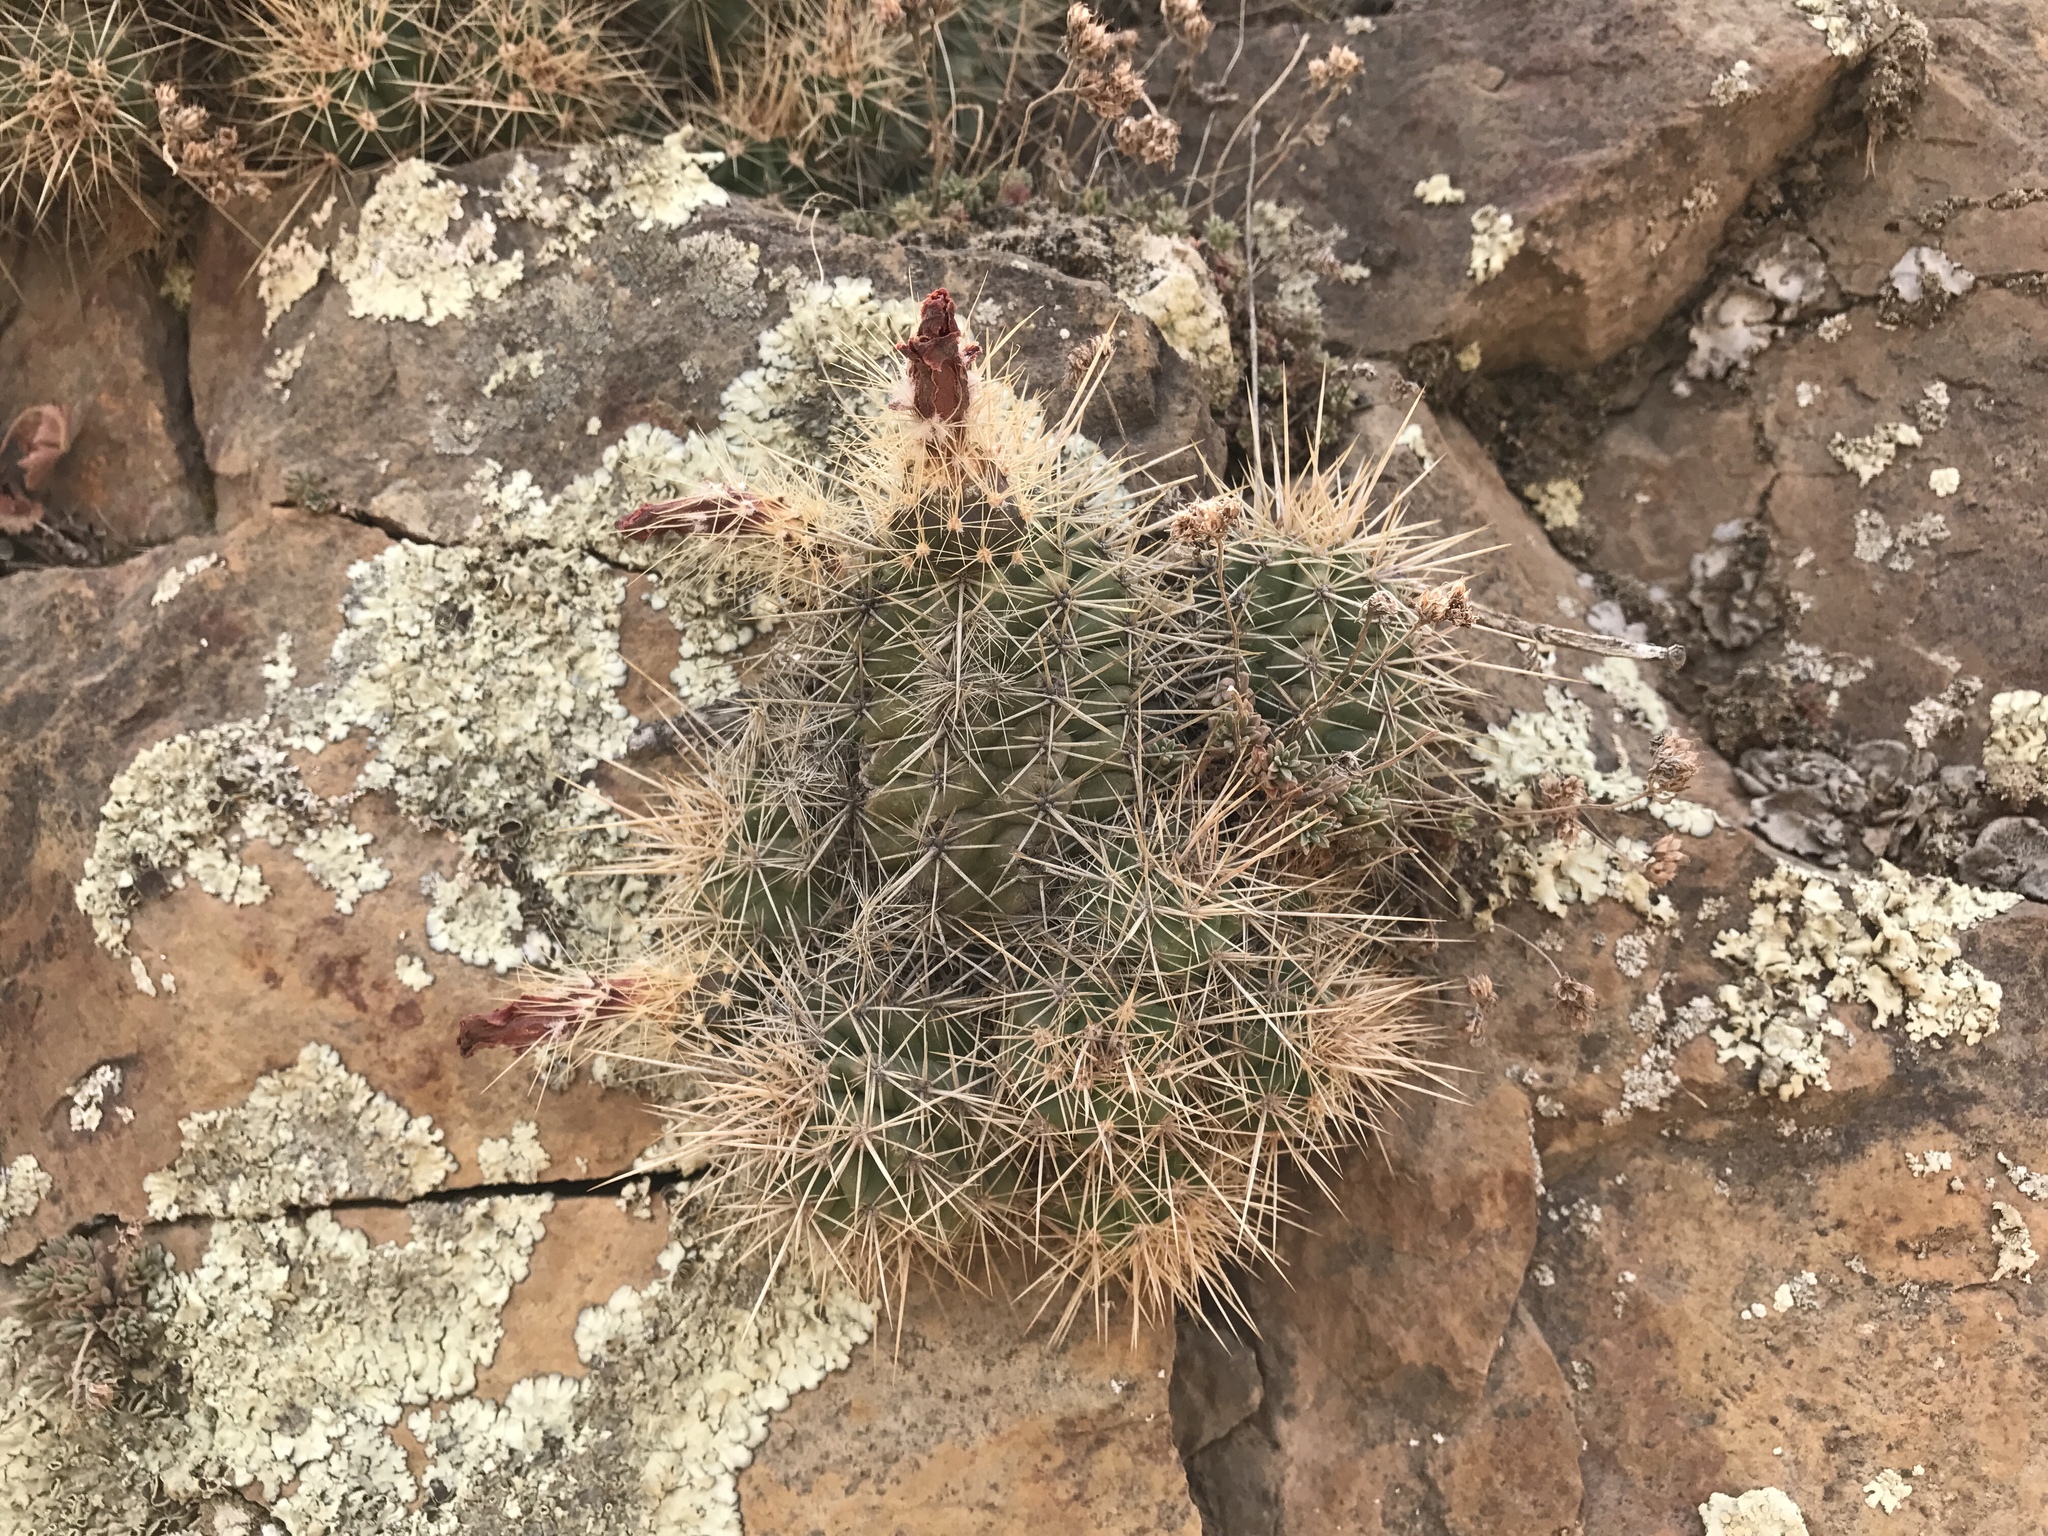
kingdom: Plantae
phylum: Tracheophyta
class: Magnoliopsida
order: Caryophyllales
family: Cactaceae
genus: Echinocereus
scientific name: Echinocereus coccineus
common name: Scarlet hedgehog cactus
